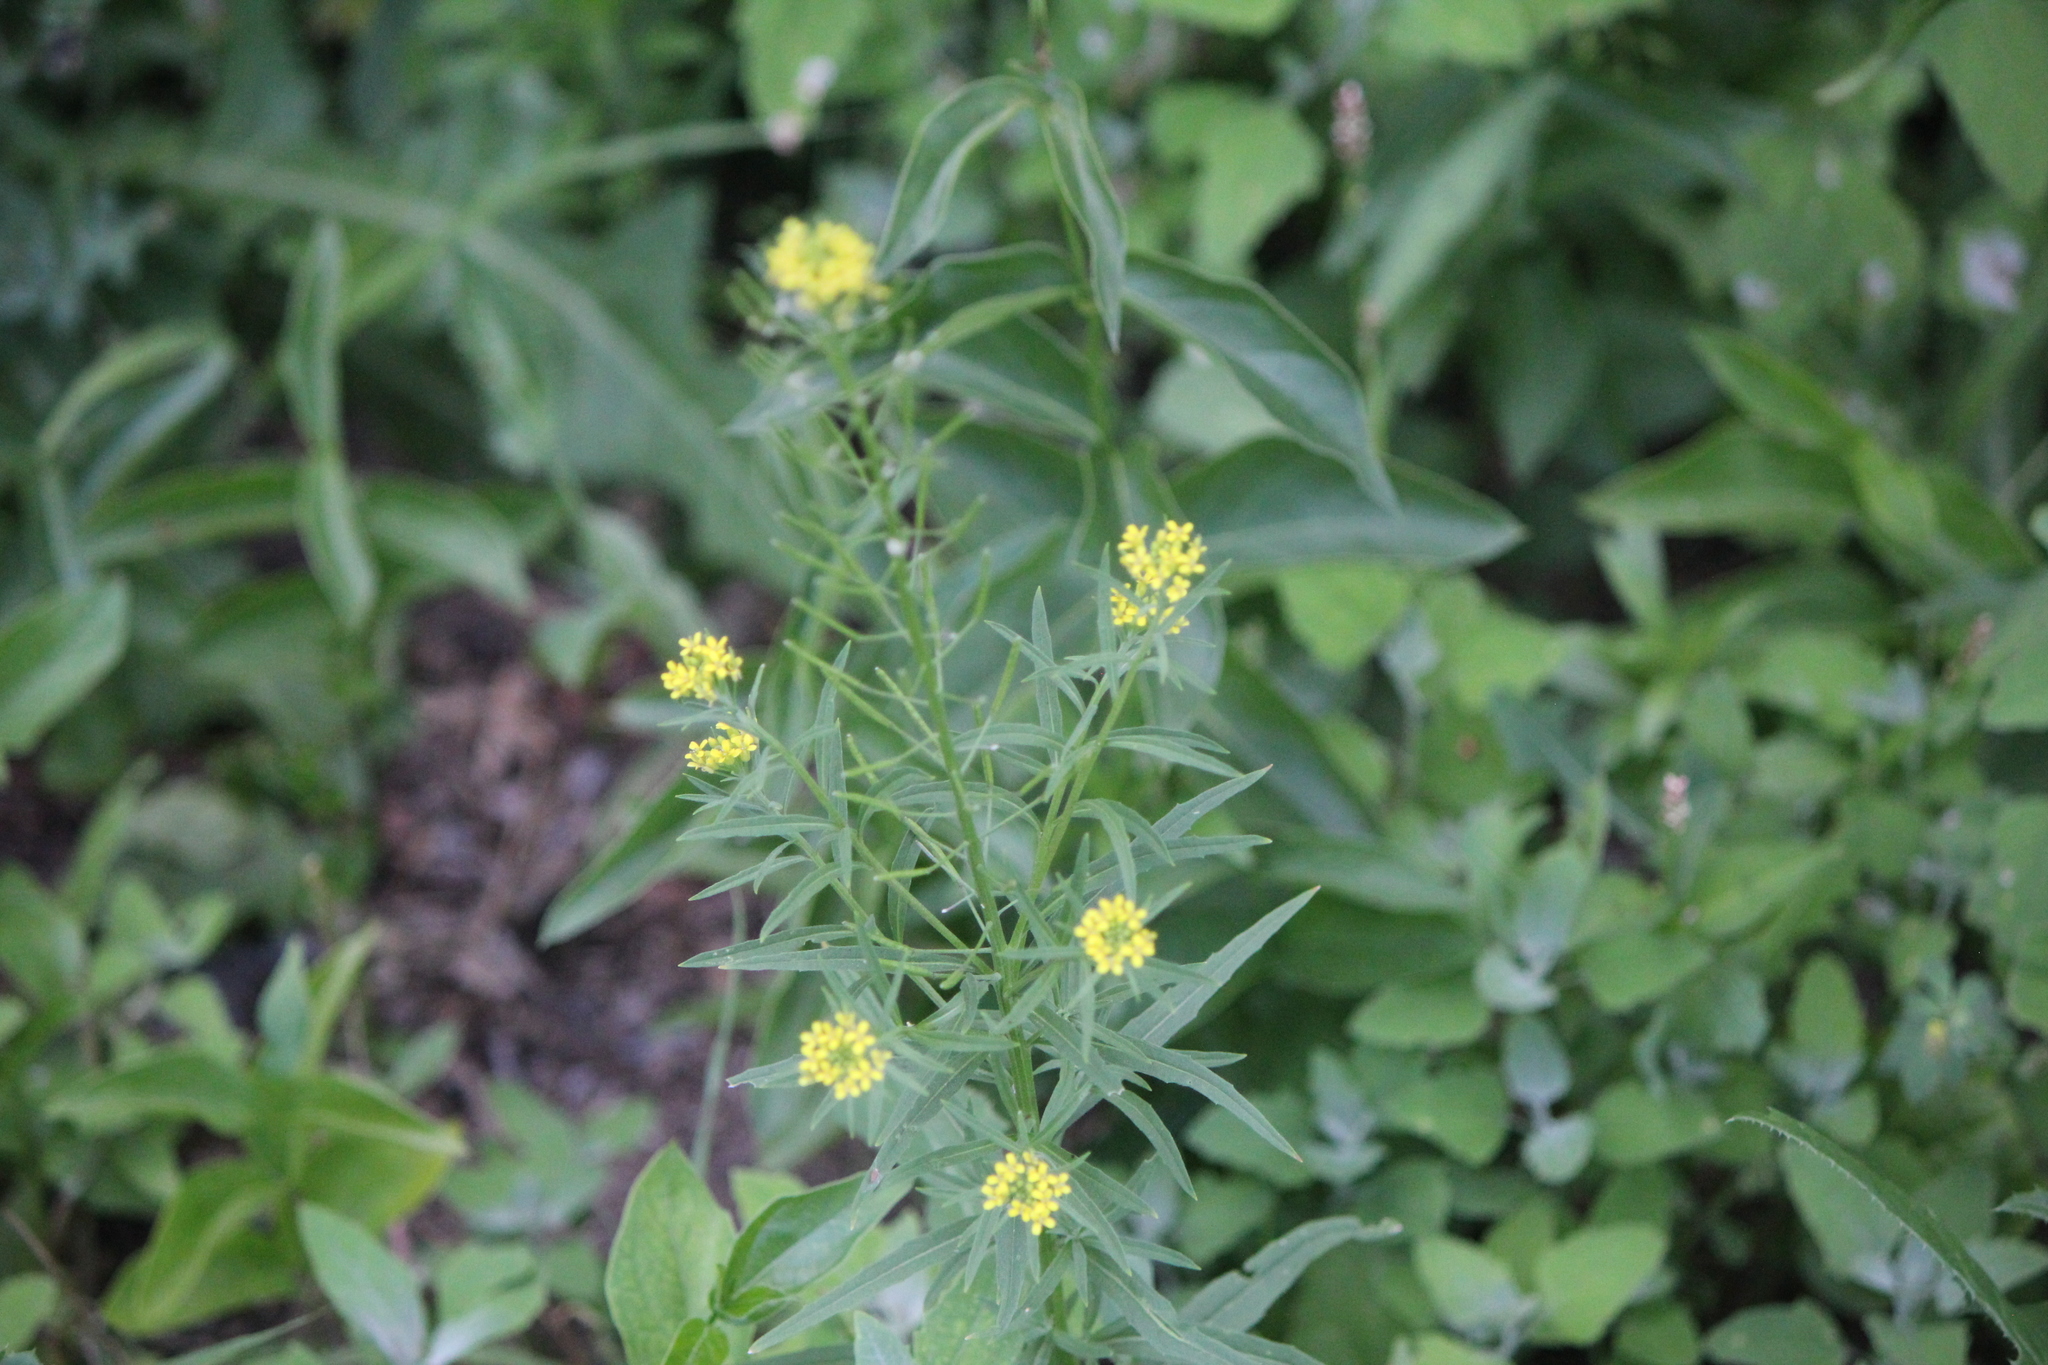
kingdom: Plantae
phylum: Tracheophyta
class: Magnoliopsida
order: Brassicales
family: Brassicaceae
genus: Erysimum
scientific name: Erysimum cheiranthoides
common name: Treacle mustard
